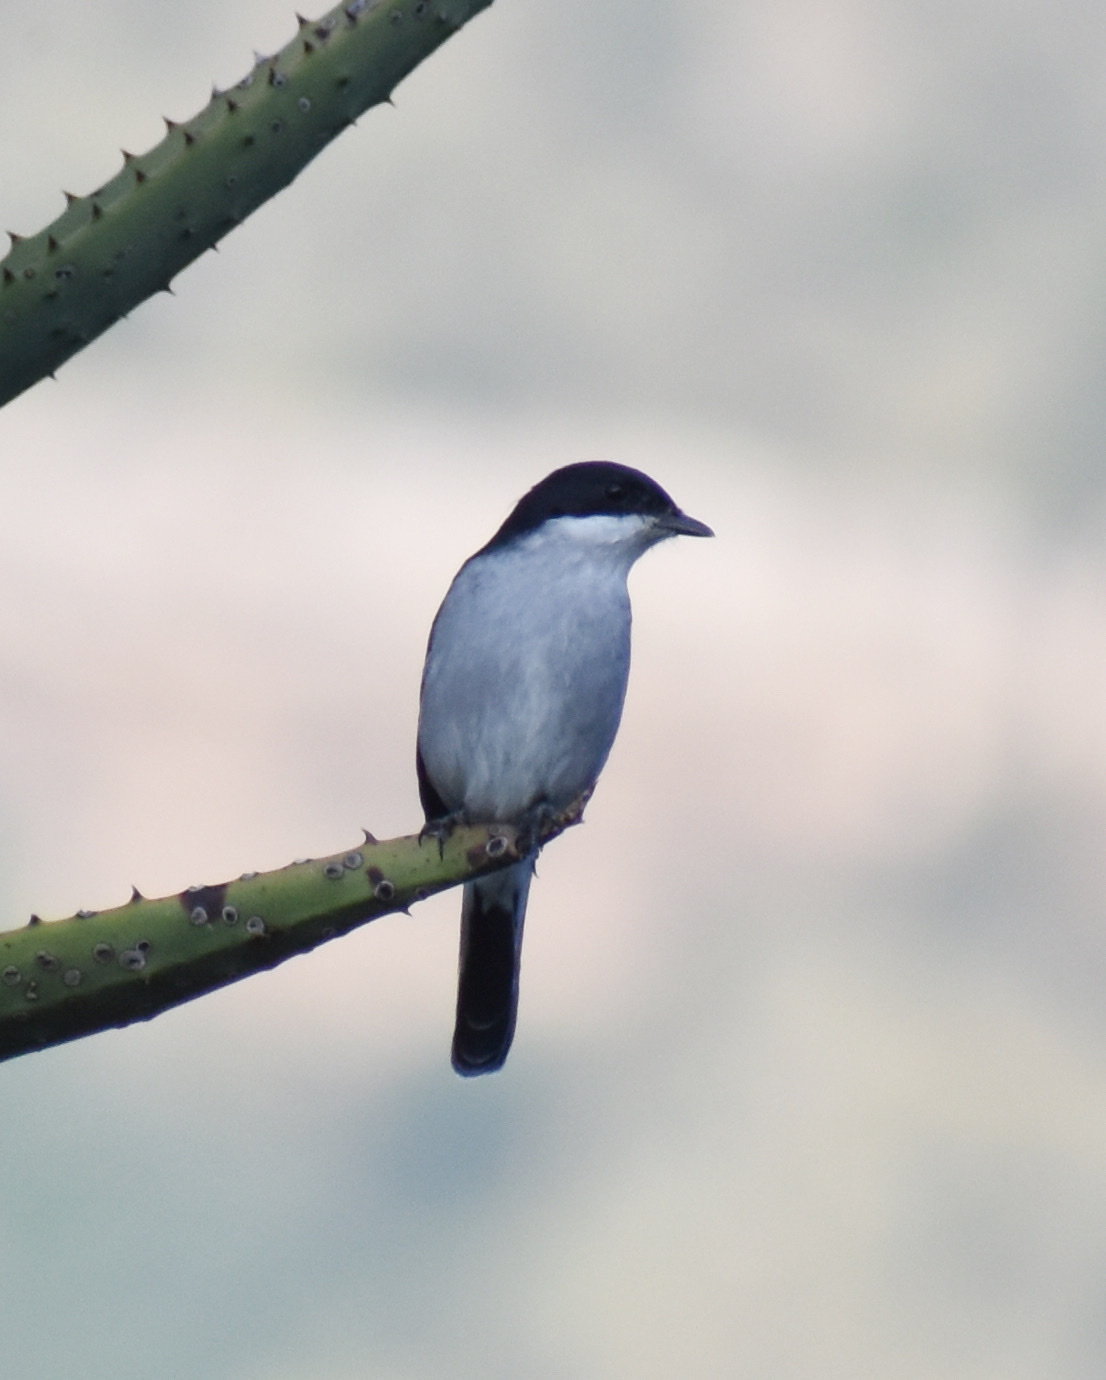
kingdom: Animalia
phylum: Chordata
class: Aves
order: Passeriformes
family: Muscicapidae
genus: Sigelus
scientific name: Sigelus silens
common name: Fiscal flycatcher
